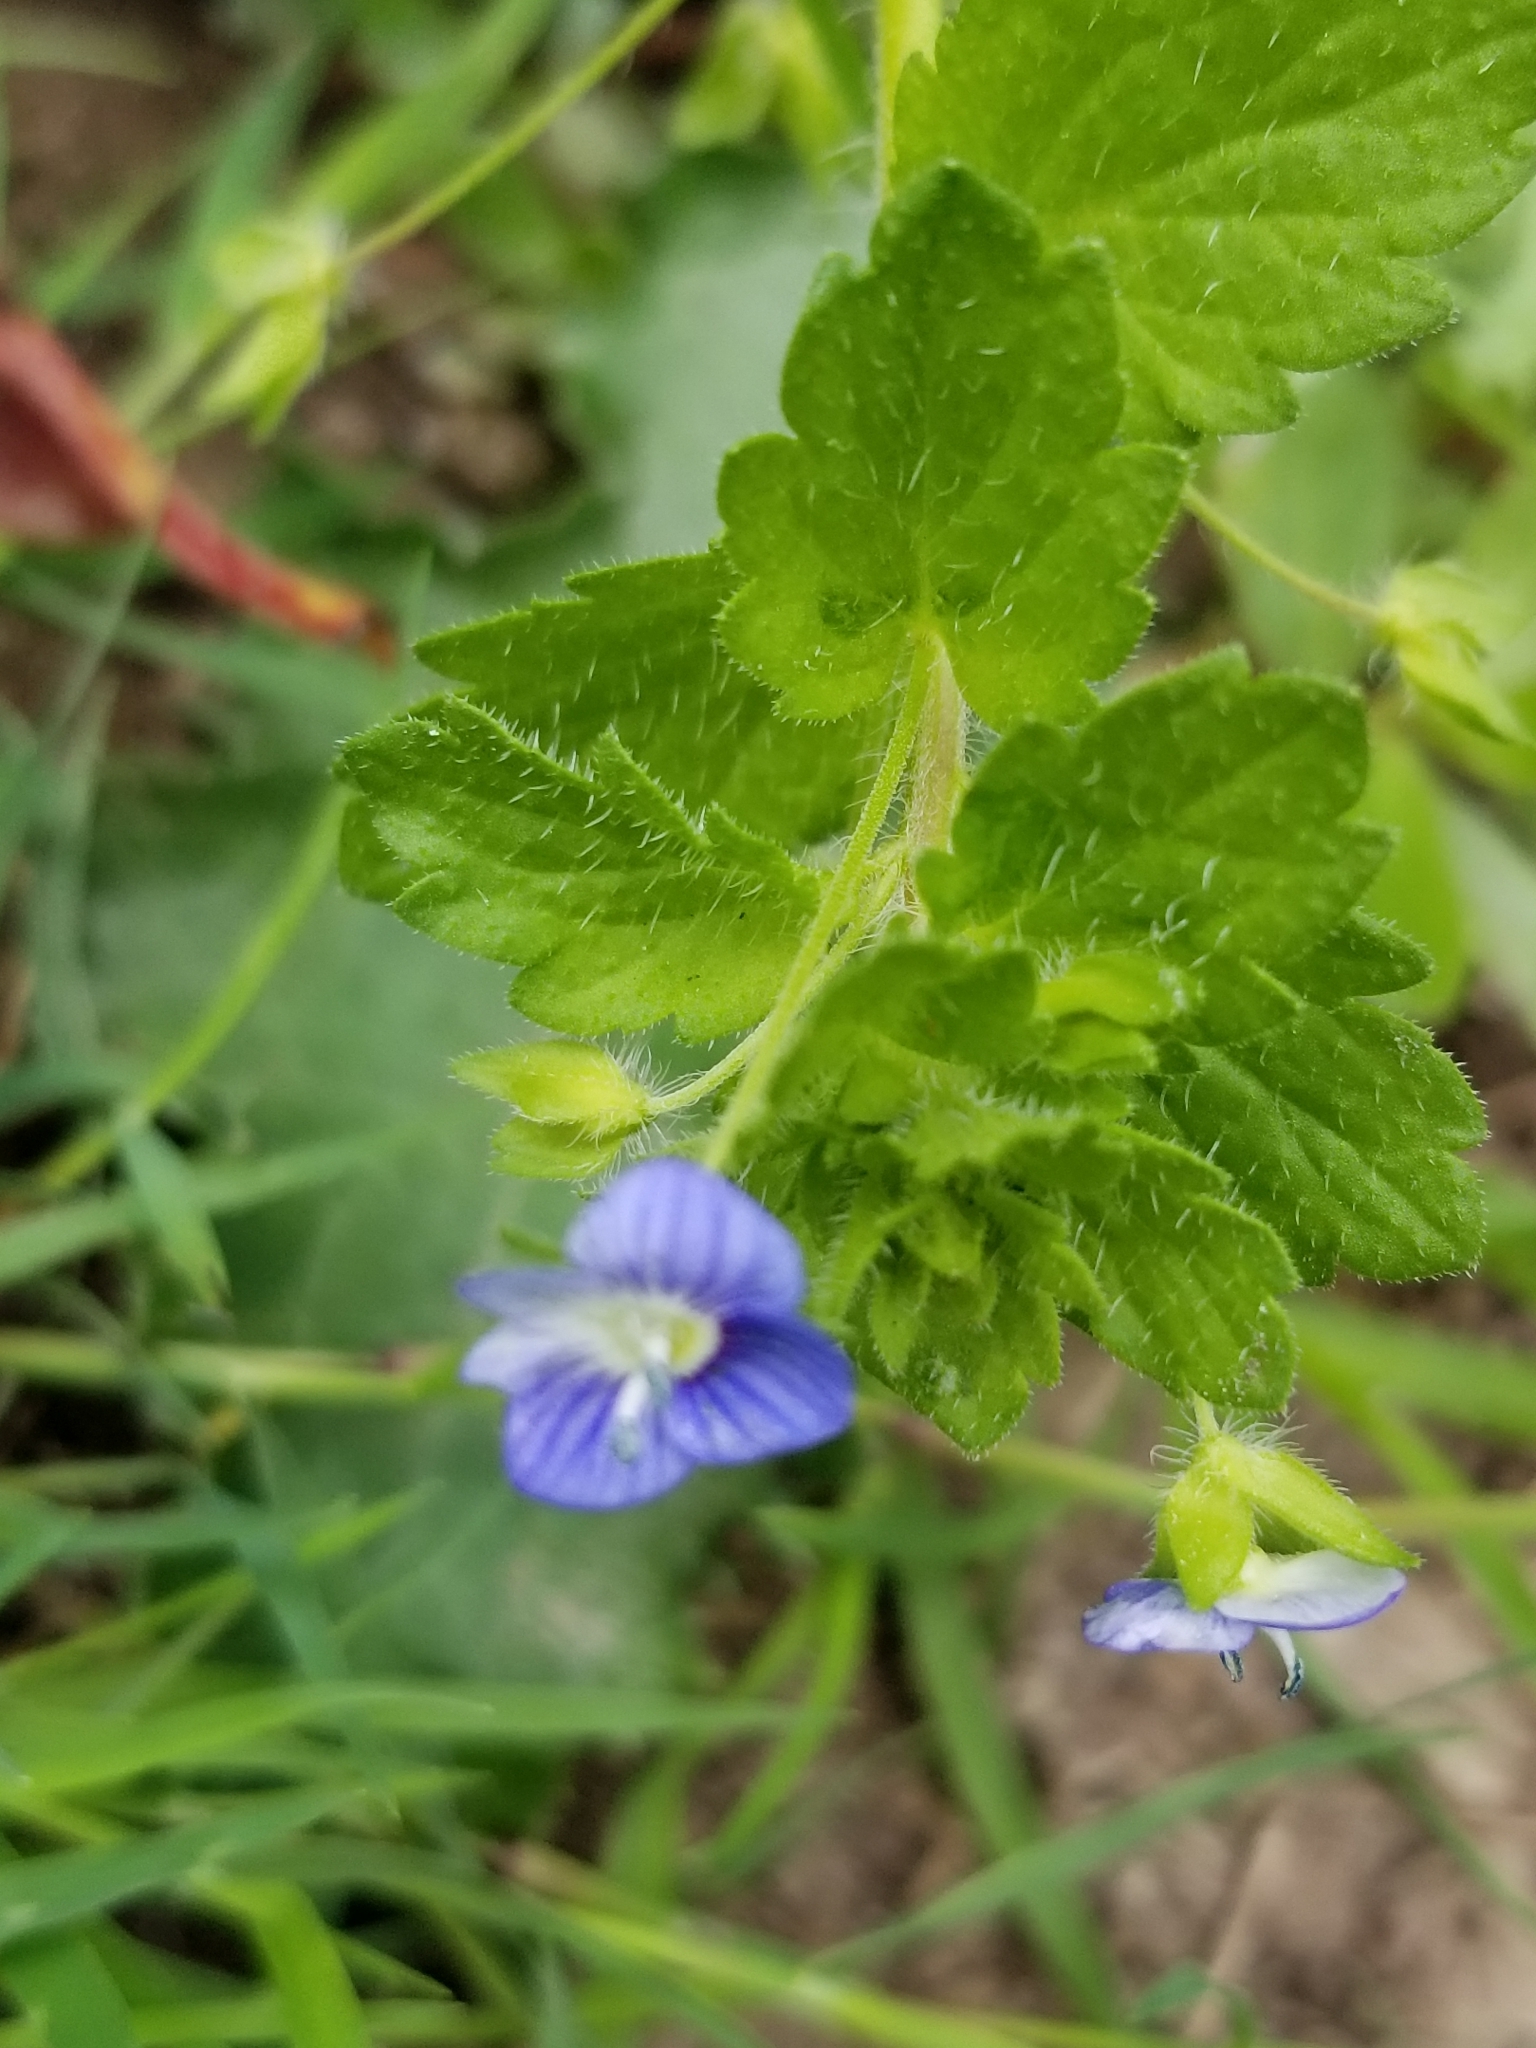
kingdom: Plantae
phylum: Tracheophyta
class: Magnoliopsida
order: Lamiales
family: Plantaginaceae
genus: Veronica
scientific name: Veronica persica
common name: Common field-speedwell
